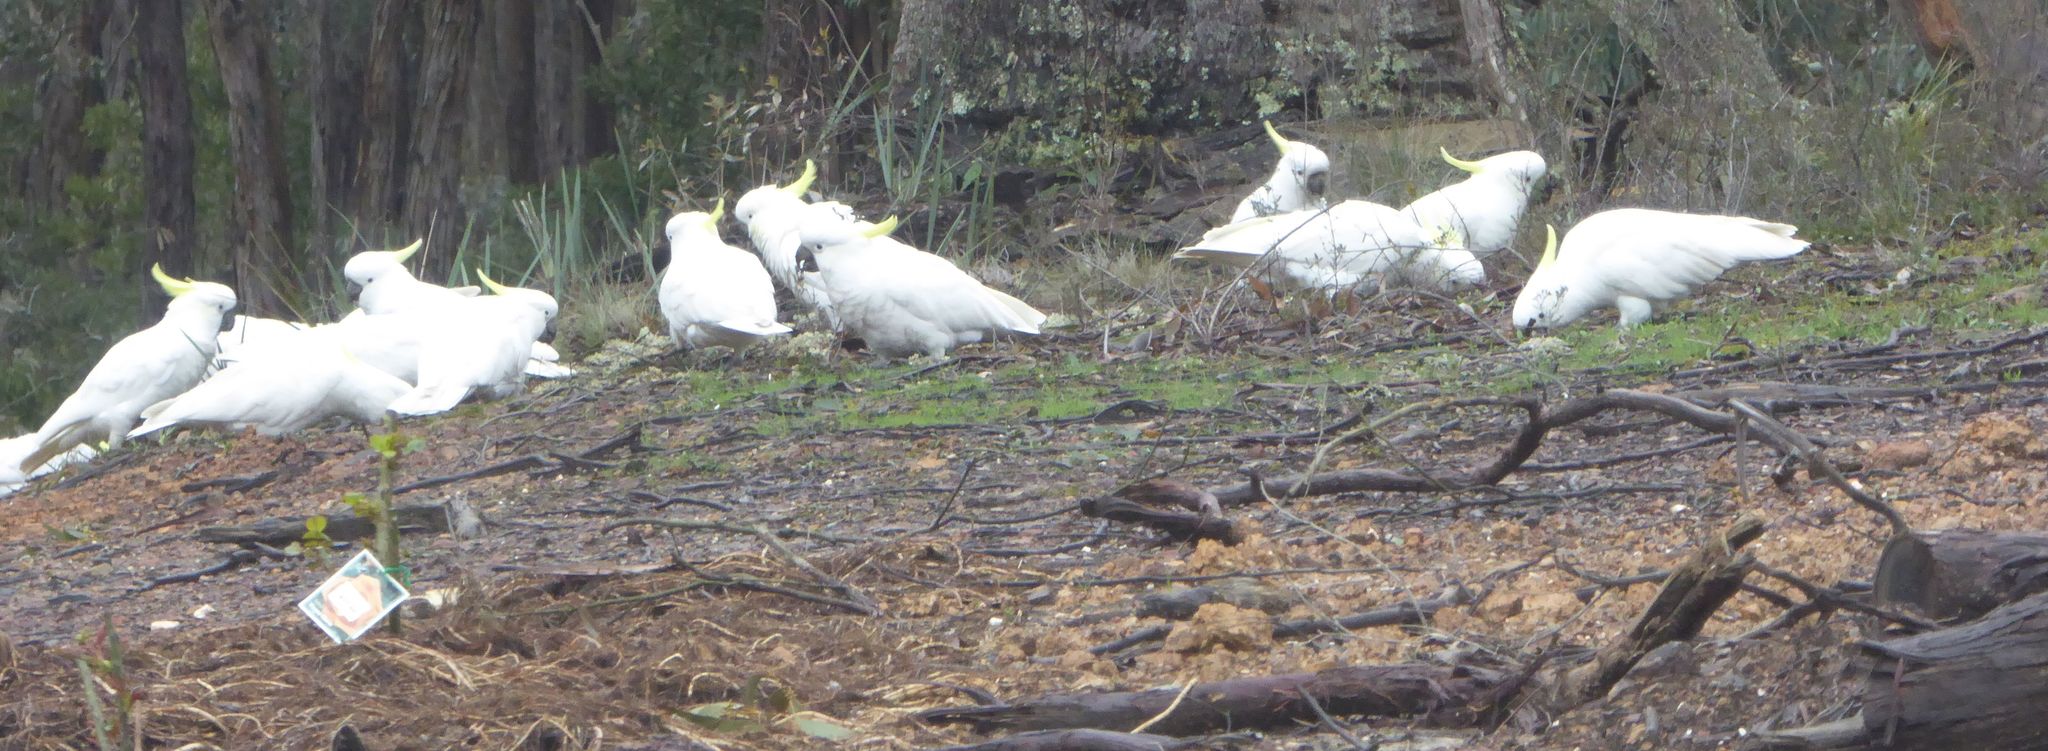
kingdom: Animalia
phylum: Chordata
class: Aves
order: Psittaciformes
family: Psittacidae
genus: Cacatua
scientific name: Cacatua galerita
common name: Sulphur-crested cockatoo
